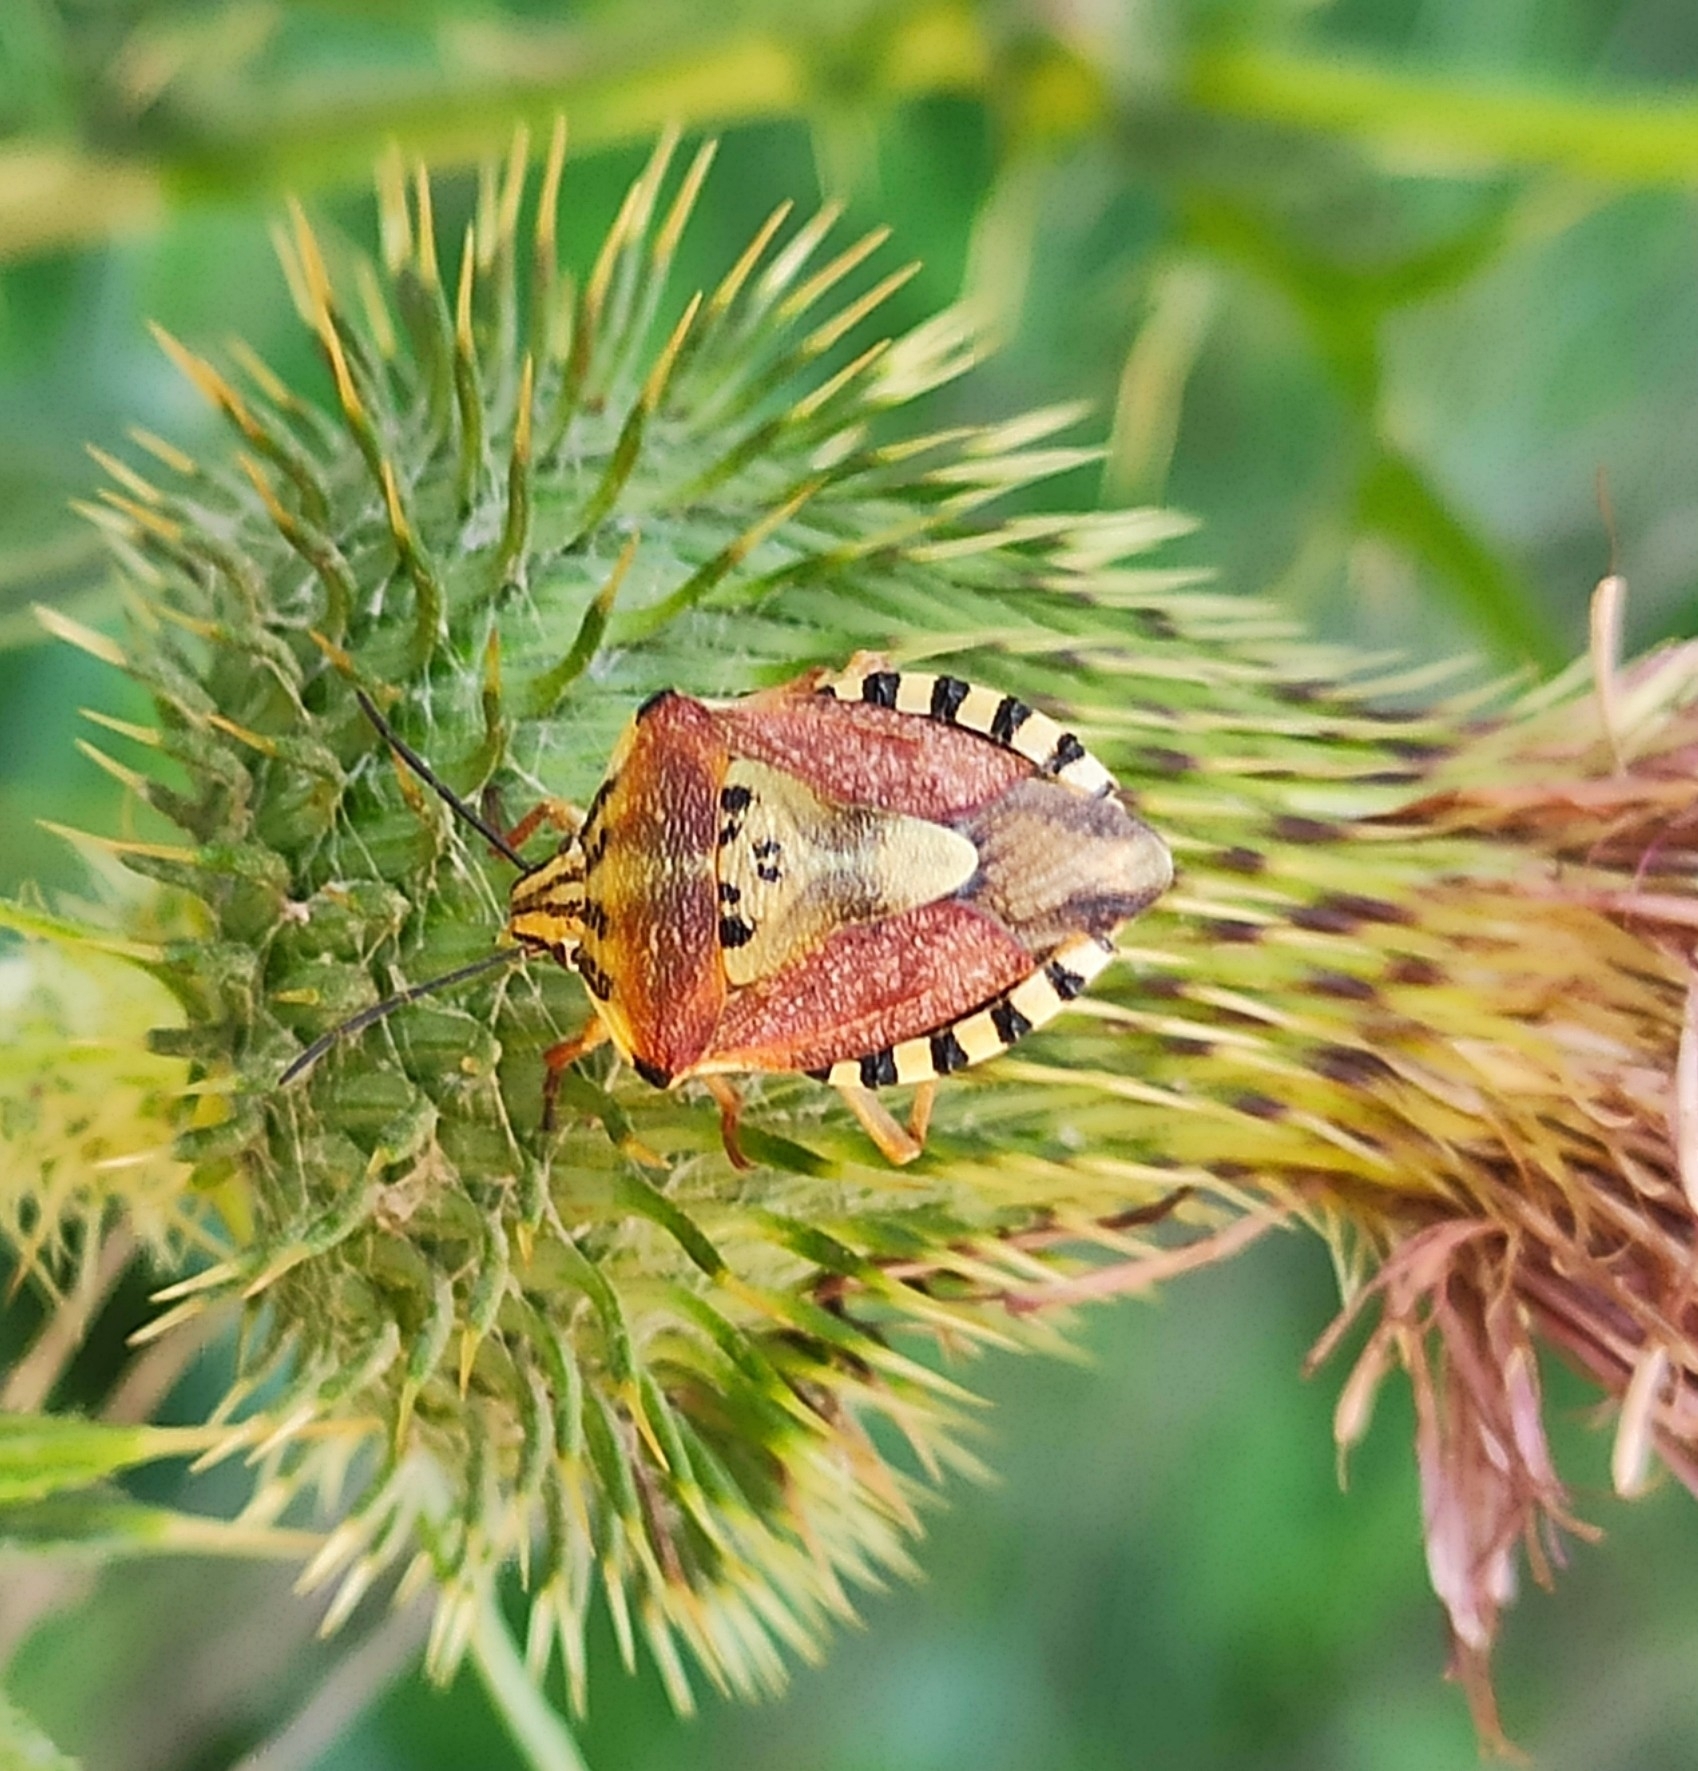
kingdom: Animalia
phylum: Arthropoda
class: Insecta
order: Hemiptera
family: Pentatomidae
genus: Carpocoris
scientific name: Carpocoris purpureipennis
